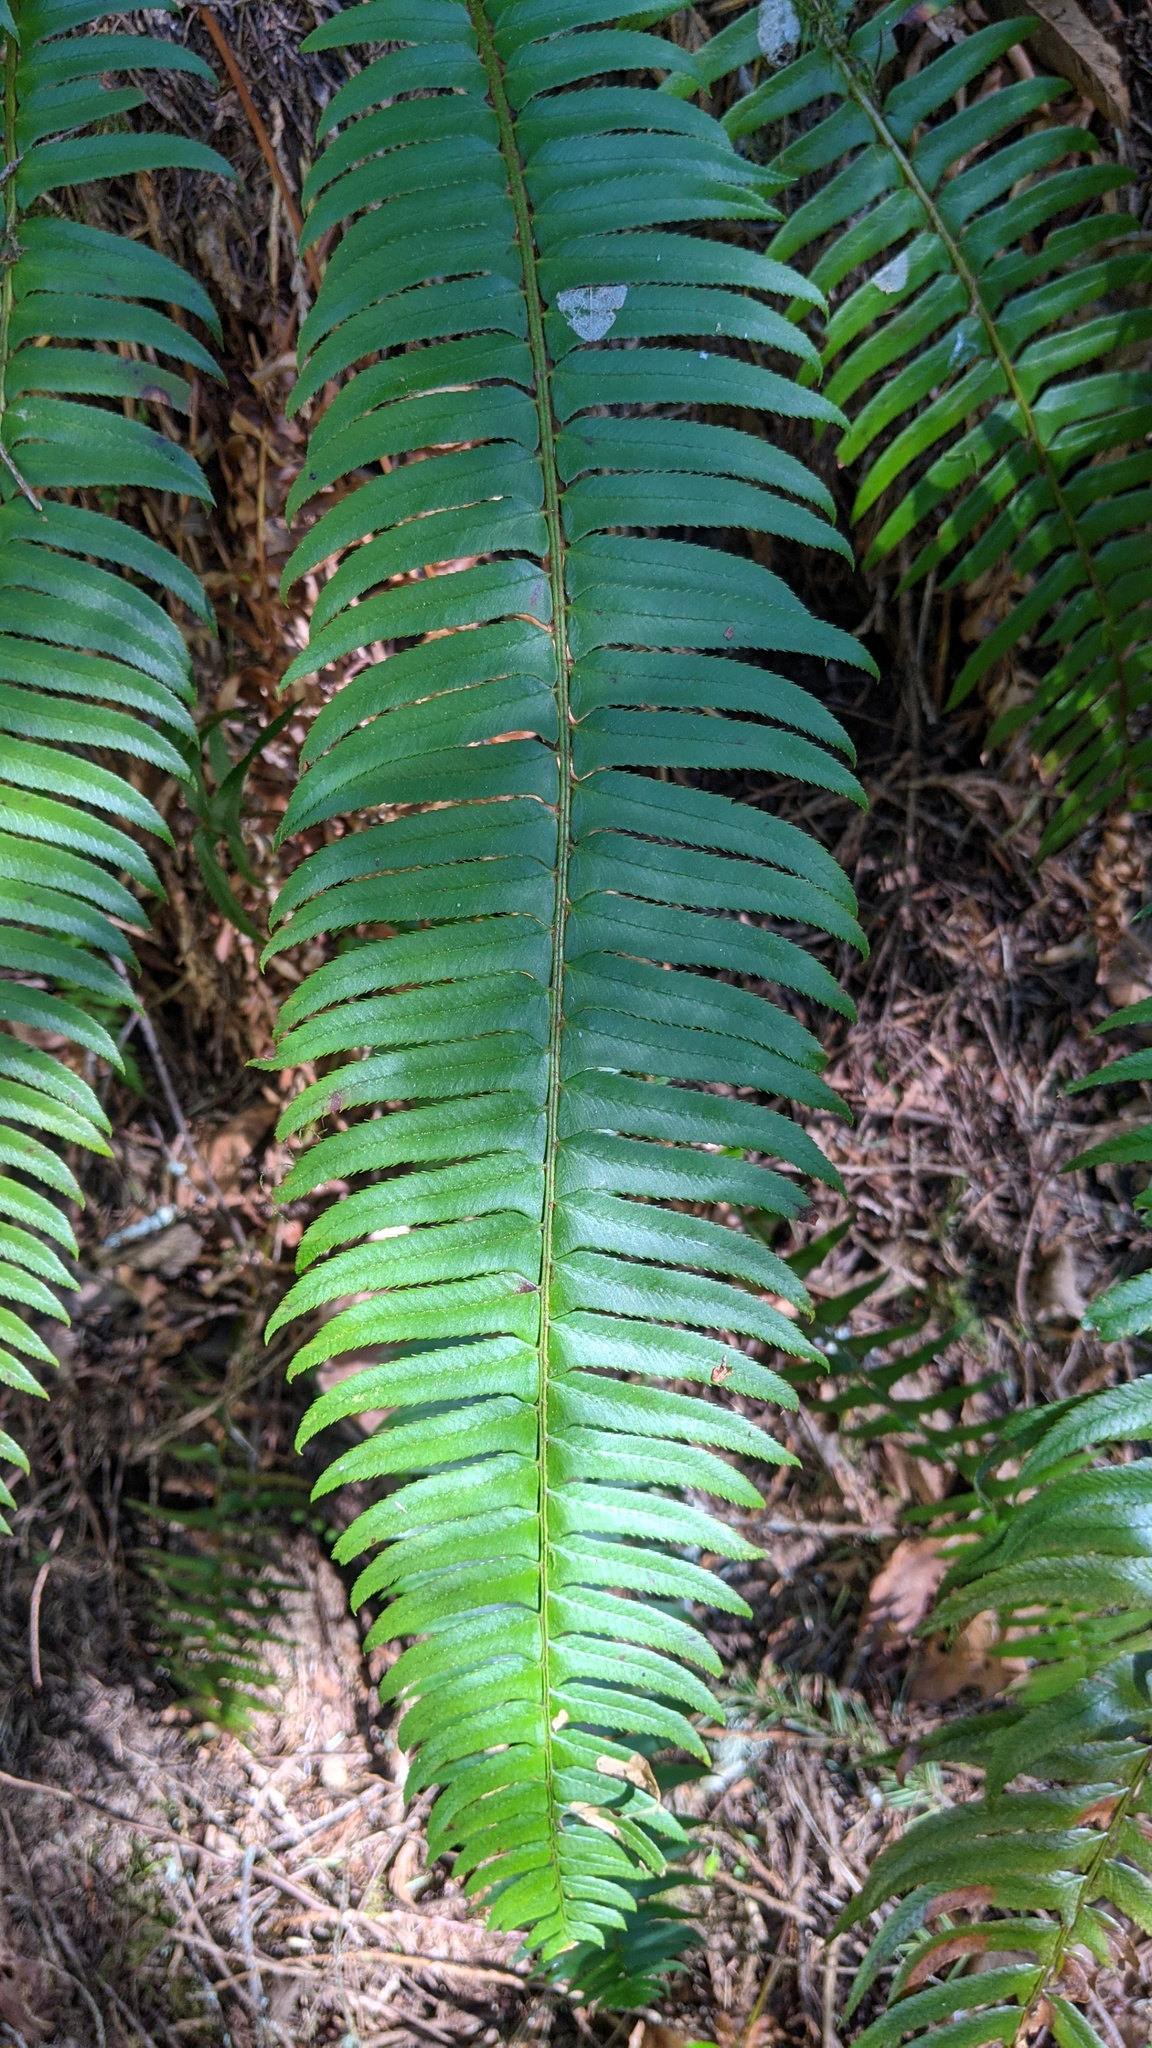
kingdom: Plantae
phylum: Tracheophyta
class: Polypodiopsida
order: Polypodiales
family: Dryopteridaceae
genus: Polystichum
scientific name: Polystichum munitum
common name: Western sword-fern
